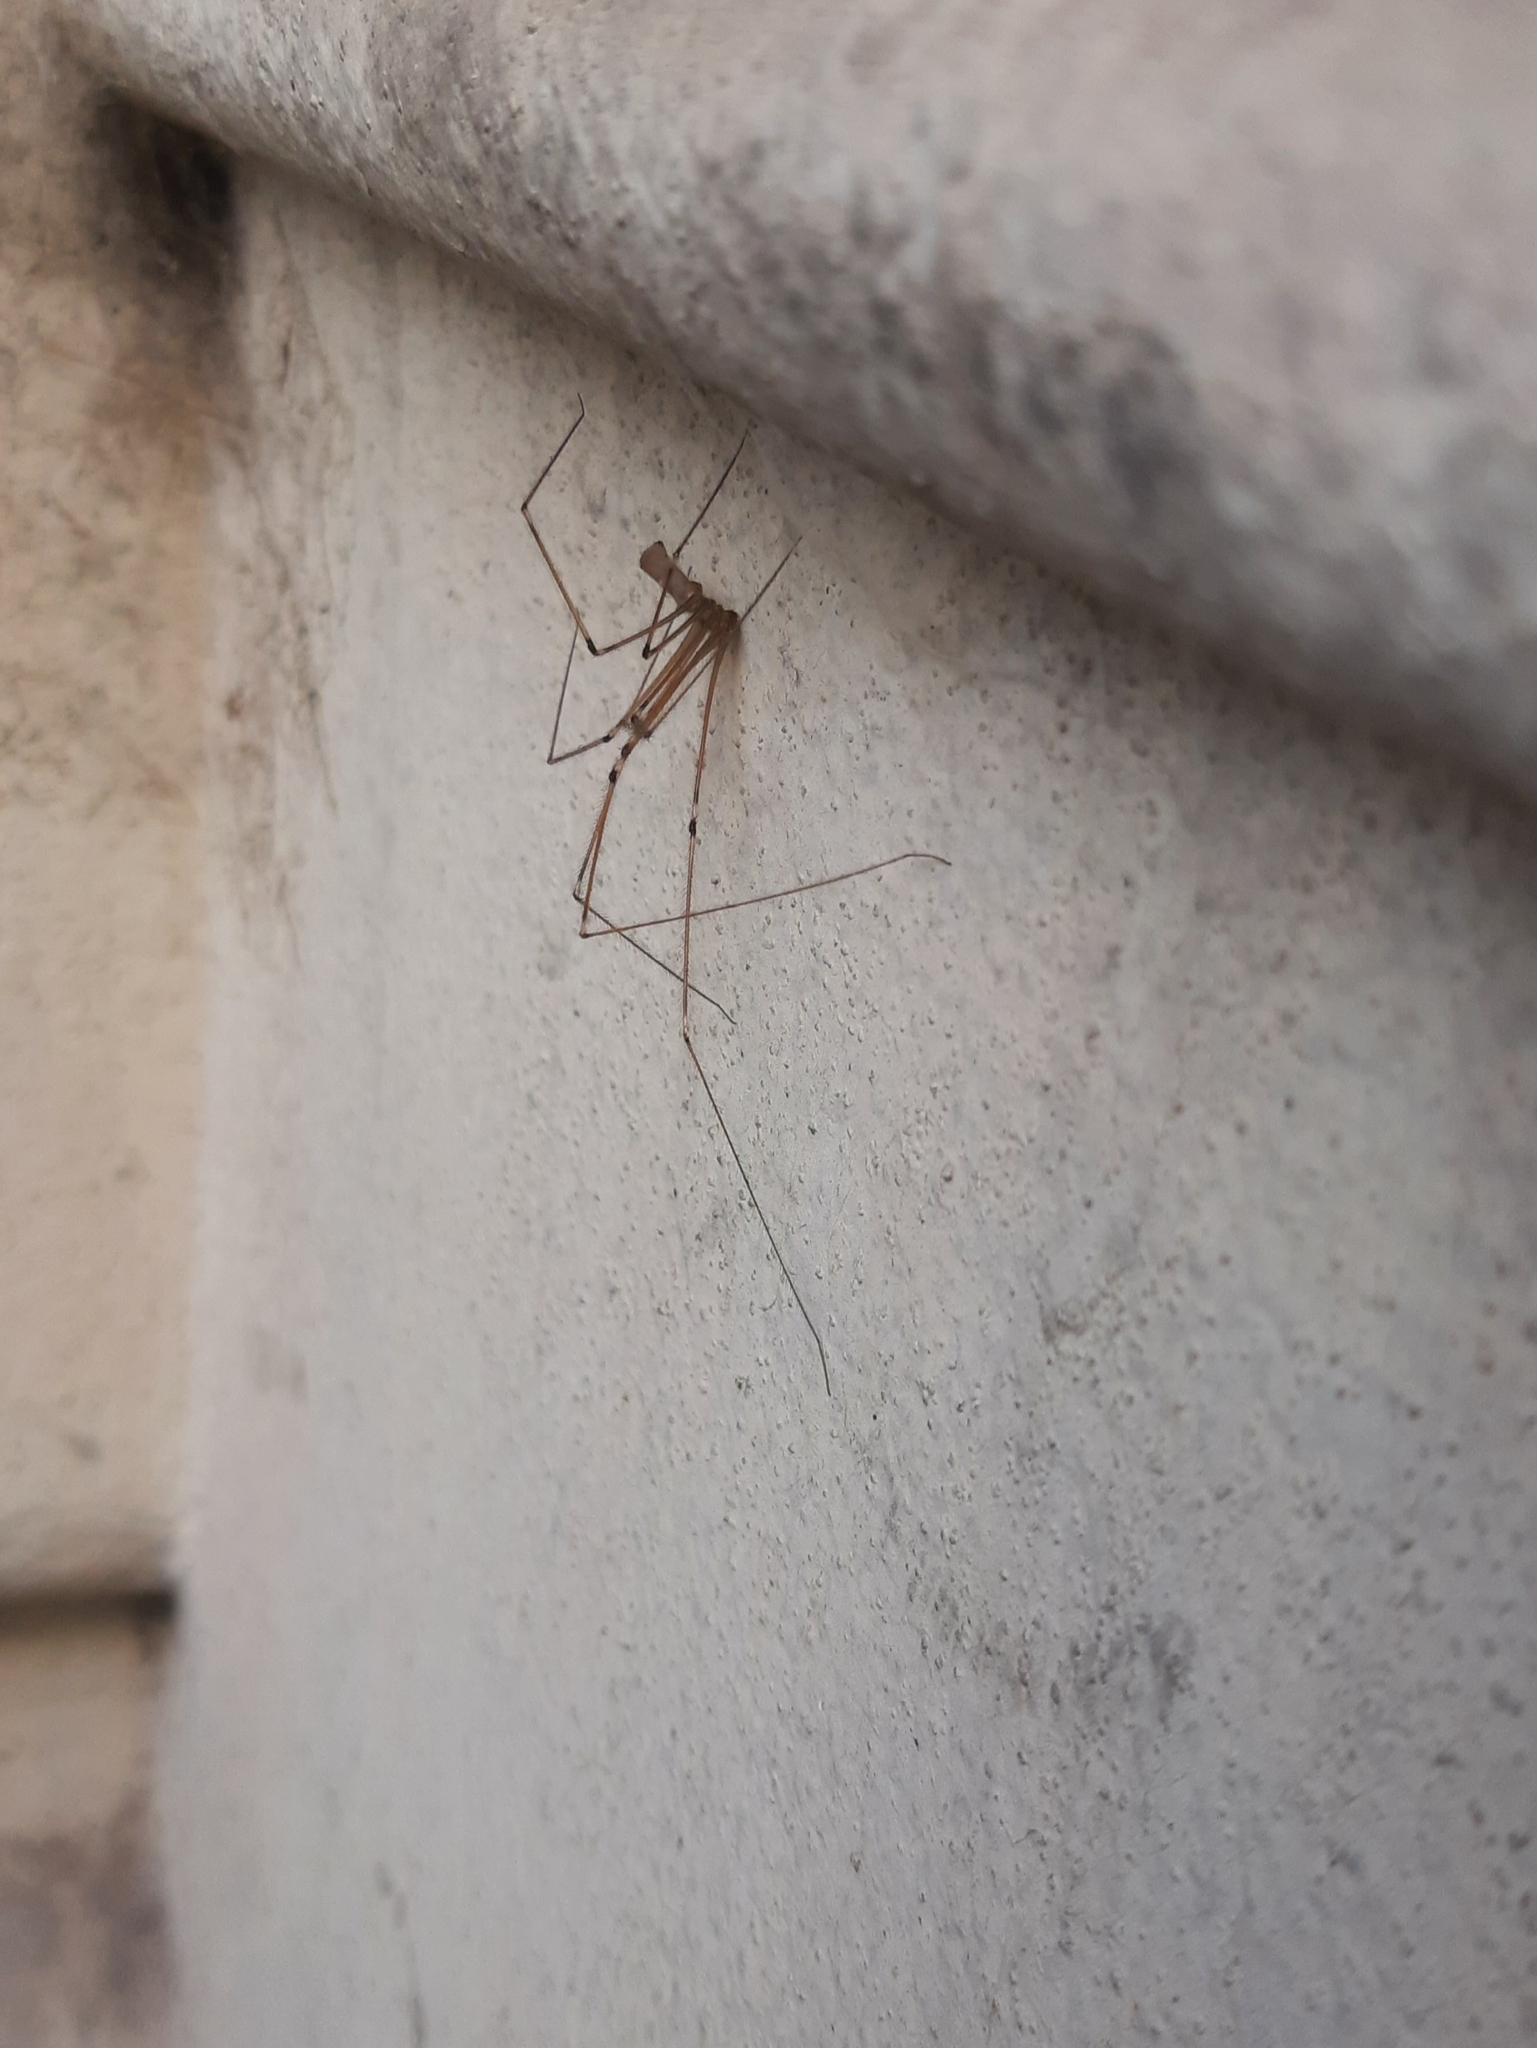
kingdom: Animalia
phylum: Arthropoda
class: Arachnida
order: Araneae
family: Pholcidae
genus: Pholcus
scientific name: Pholcus phalangioides
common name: Longbodied cellar spider
